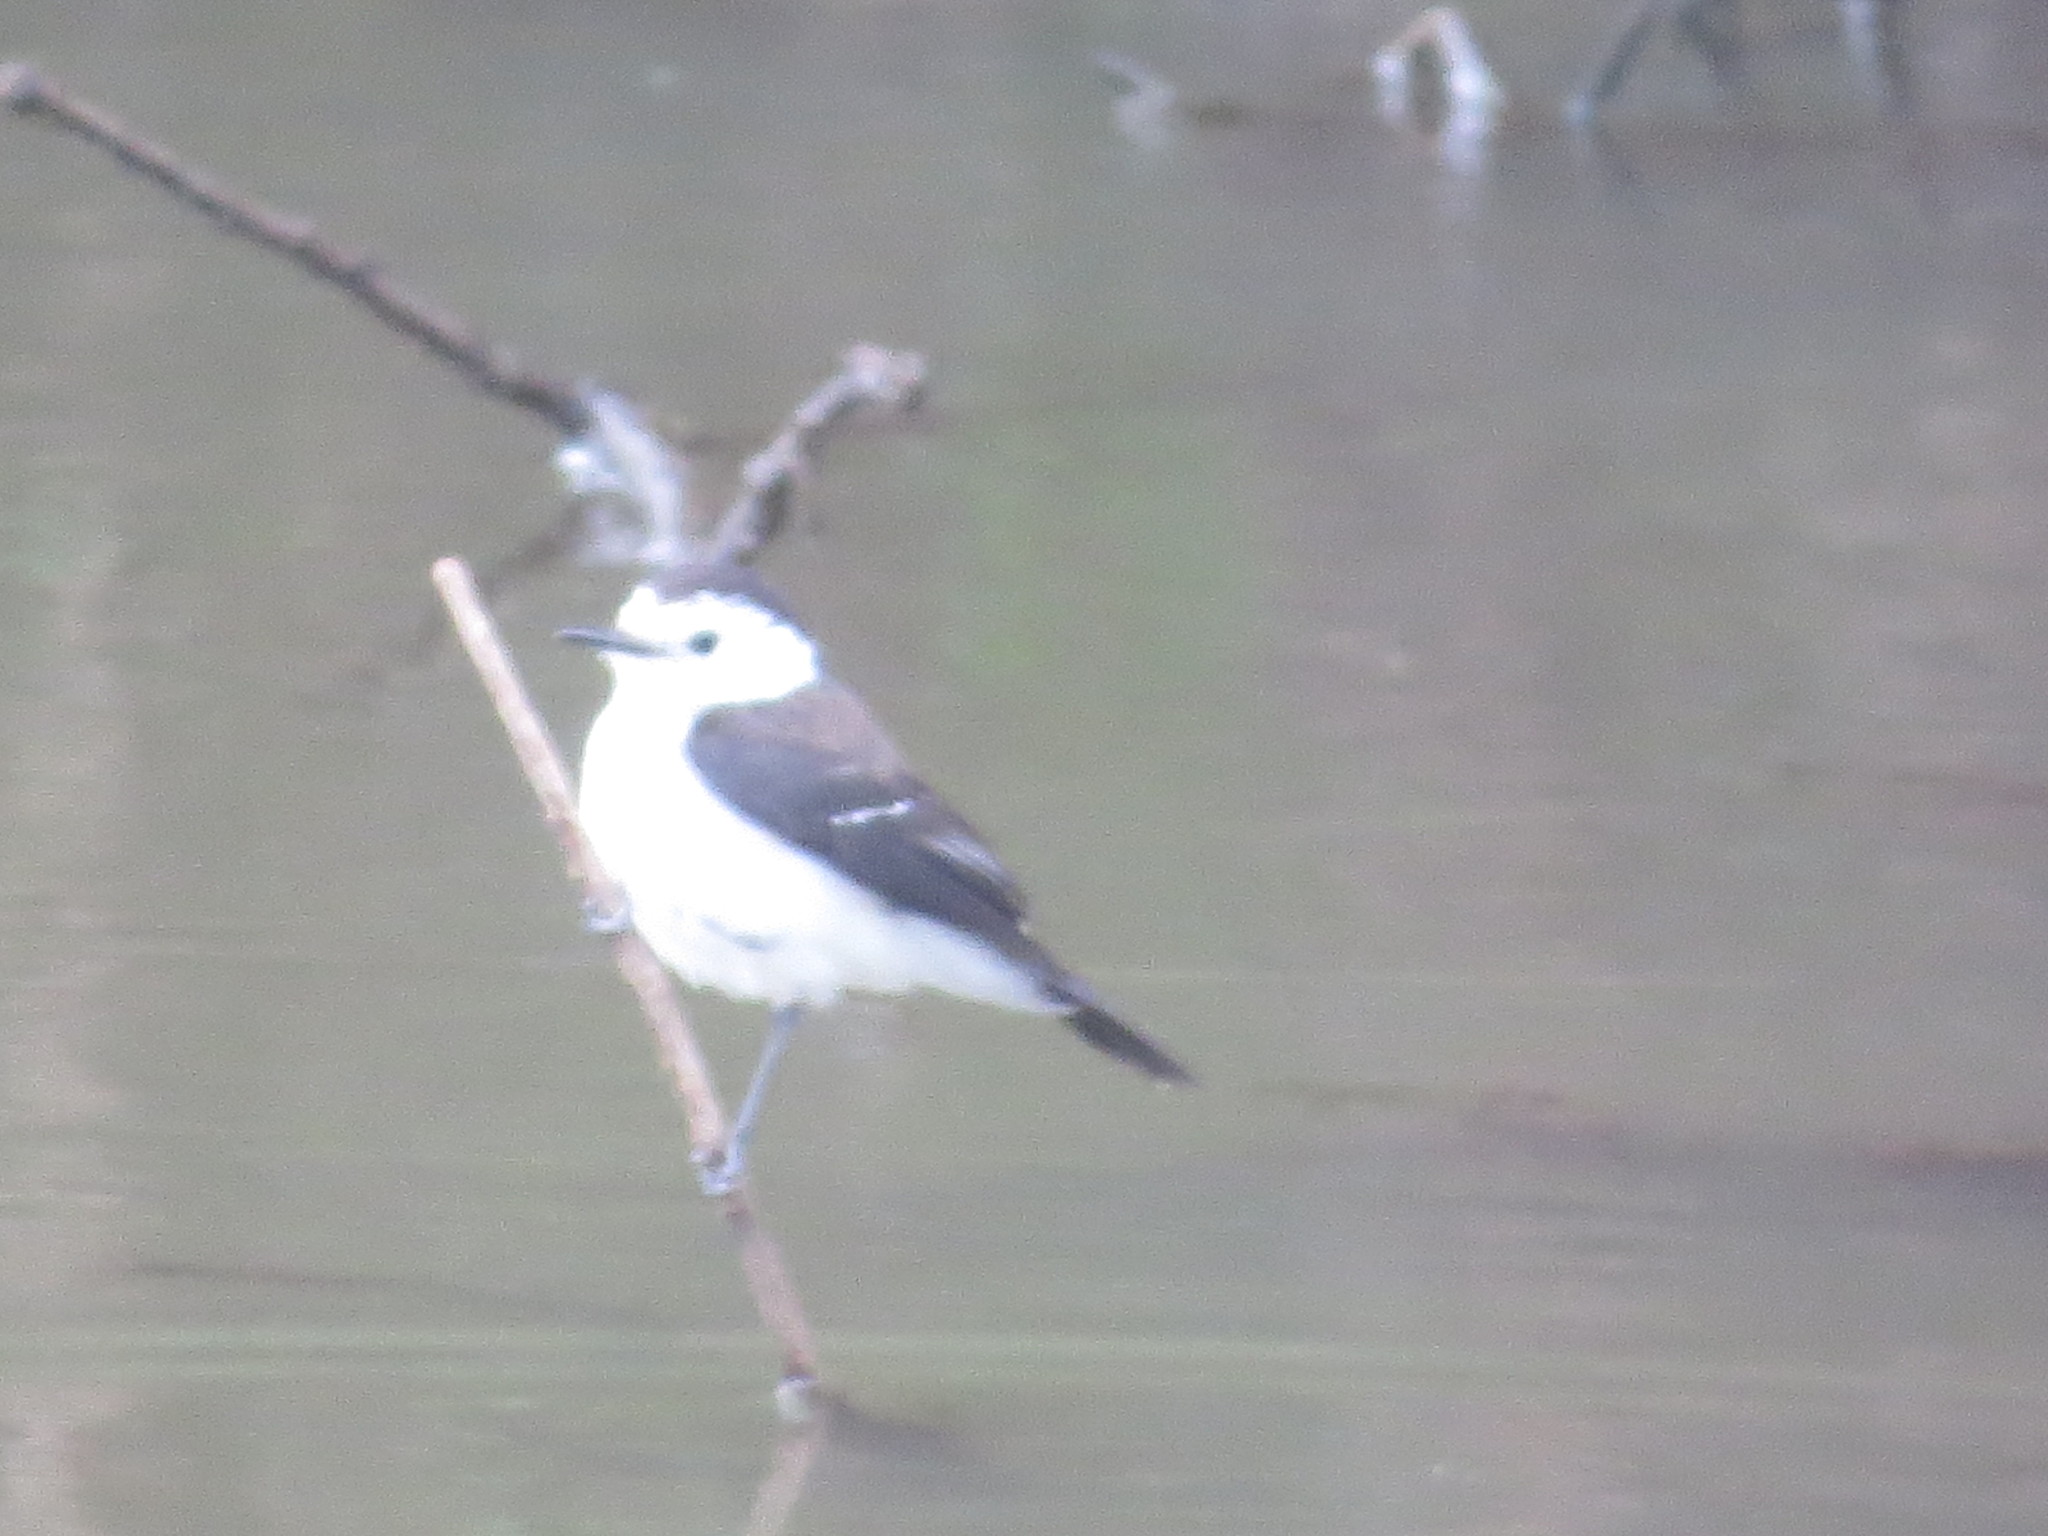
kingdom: Animalia
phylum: Chordata
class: Aves
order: Passeriformes
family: Tyrannidae
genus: Fluvicola
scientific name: Fluvicola pica
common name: Pied water-tyrant
